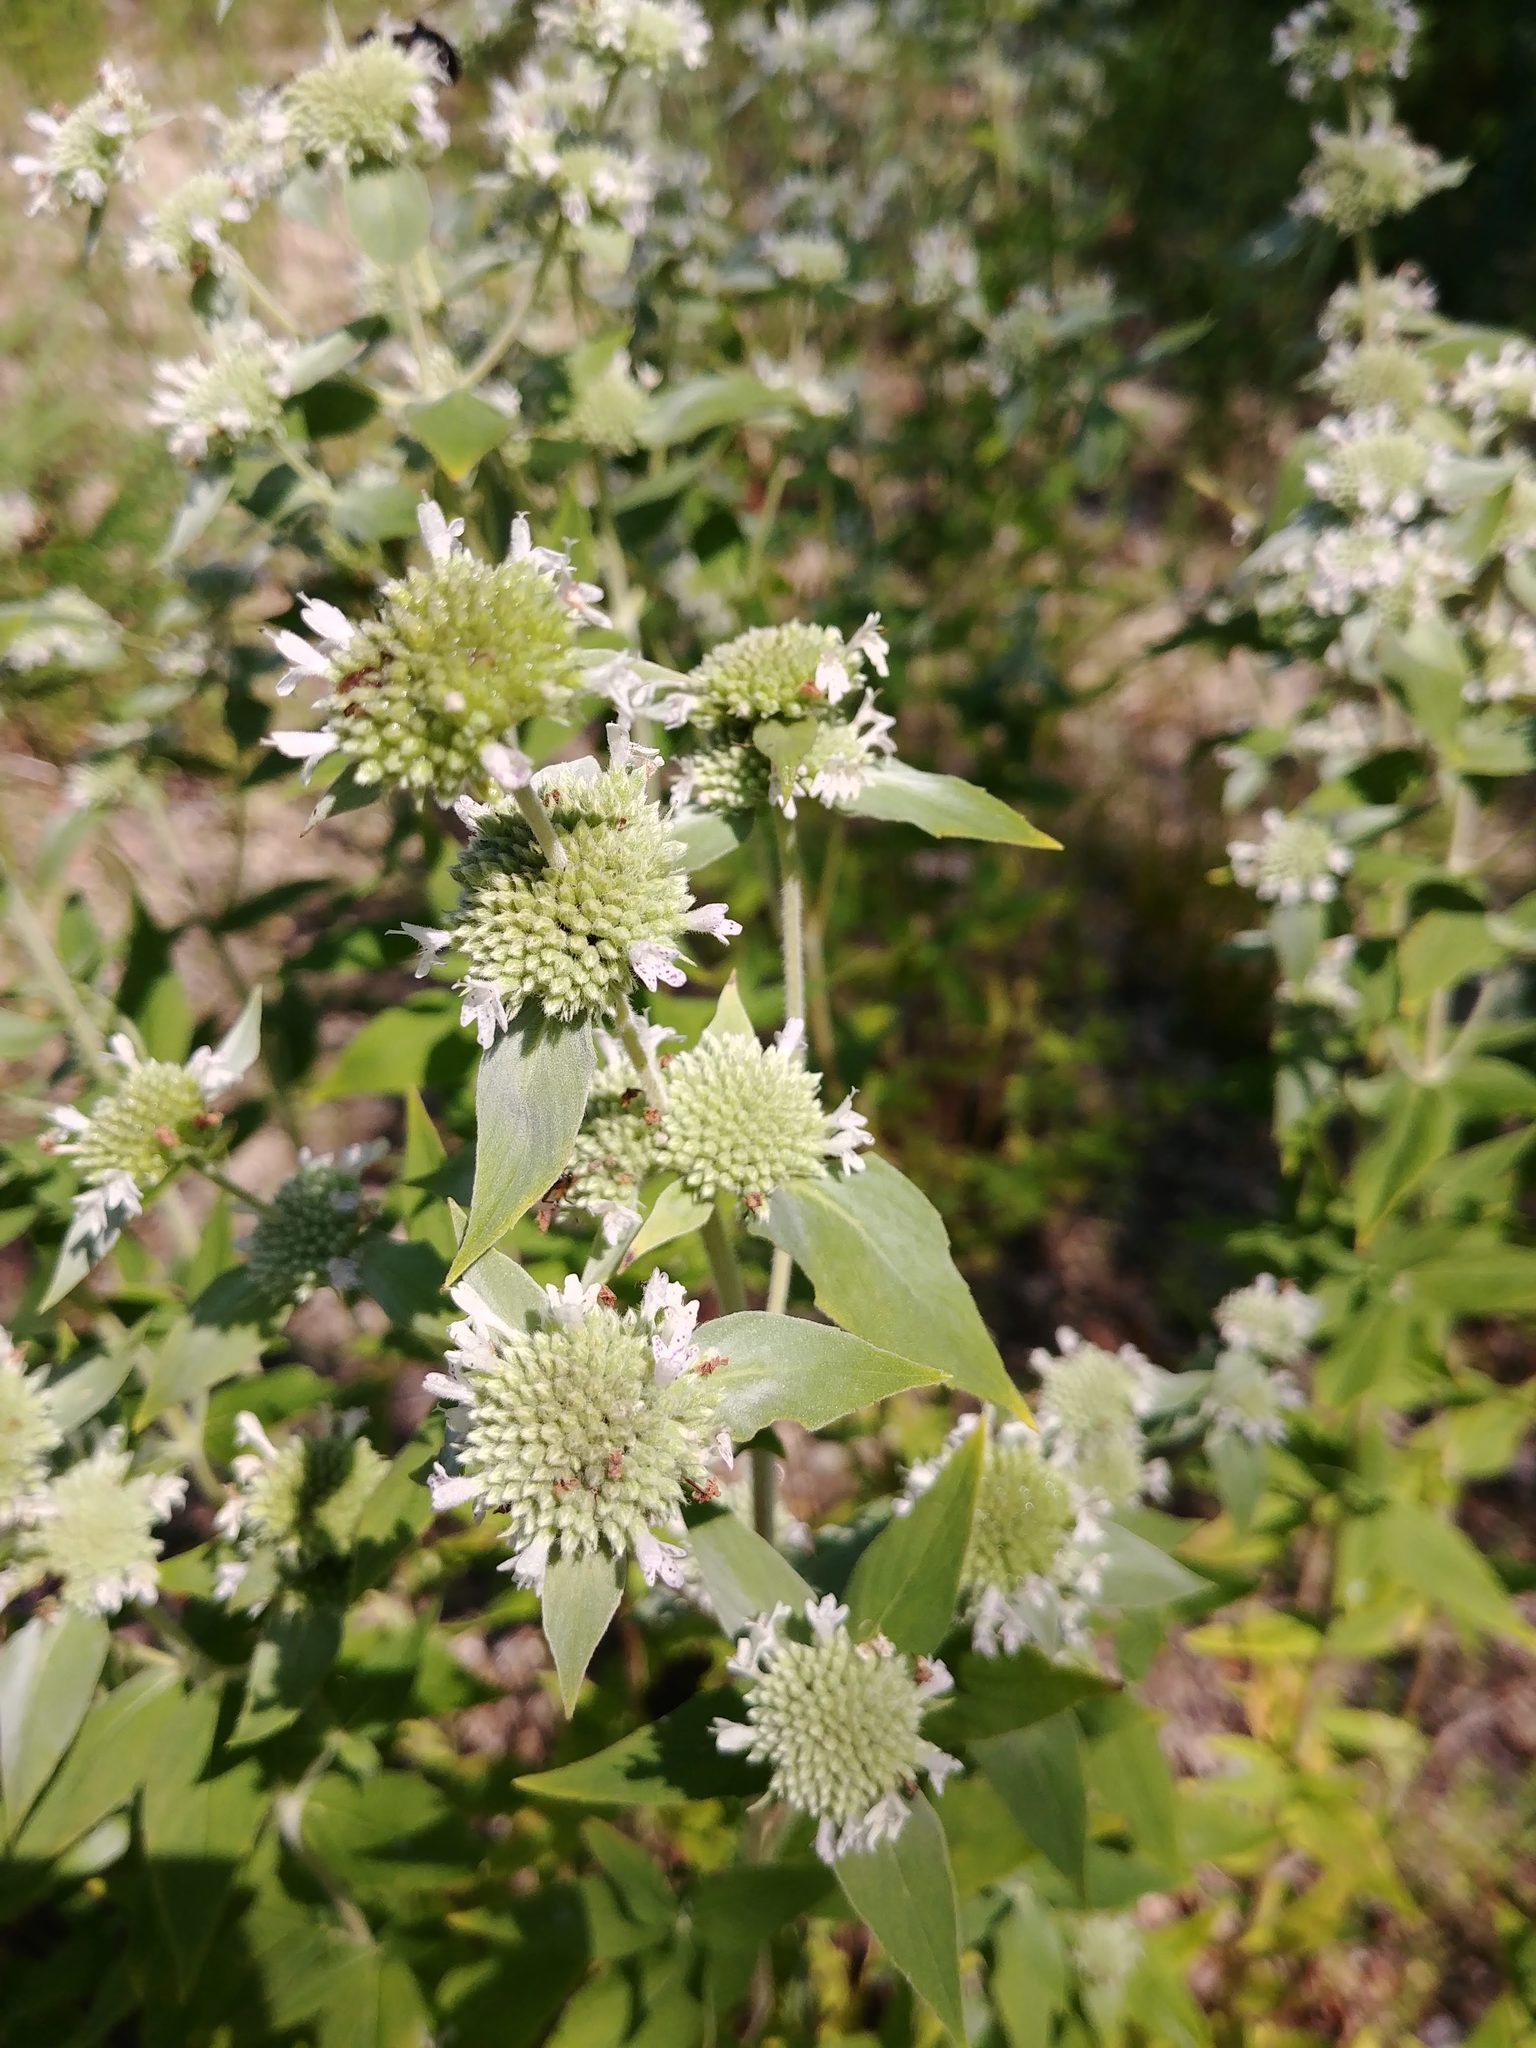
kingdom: Plantae
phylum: Tracheophyta
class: Magnoliopsida
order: Lamiales
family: Lamiaceae
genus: Pycnanthemum
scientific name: Pycnanthemum muticum
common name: Blunt mountain-mint
